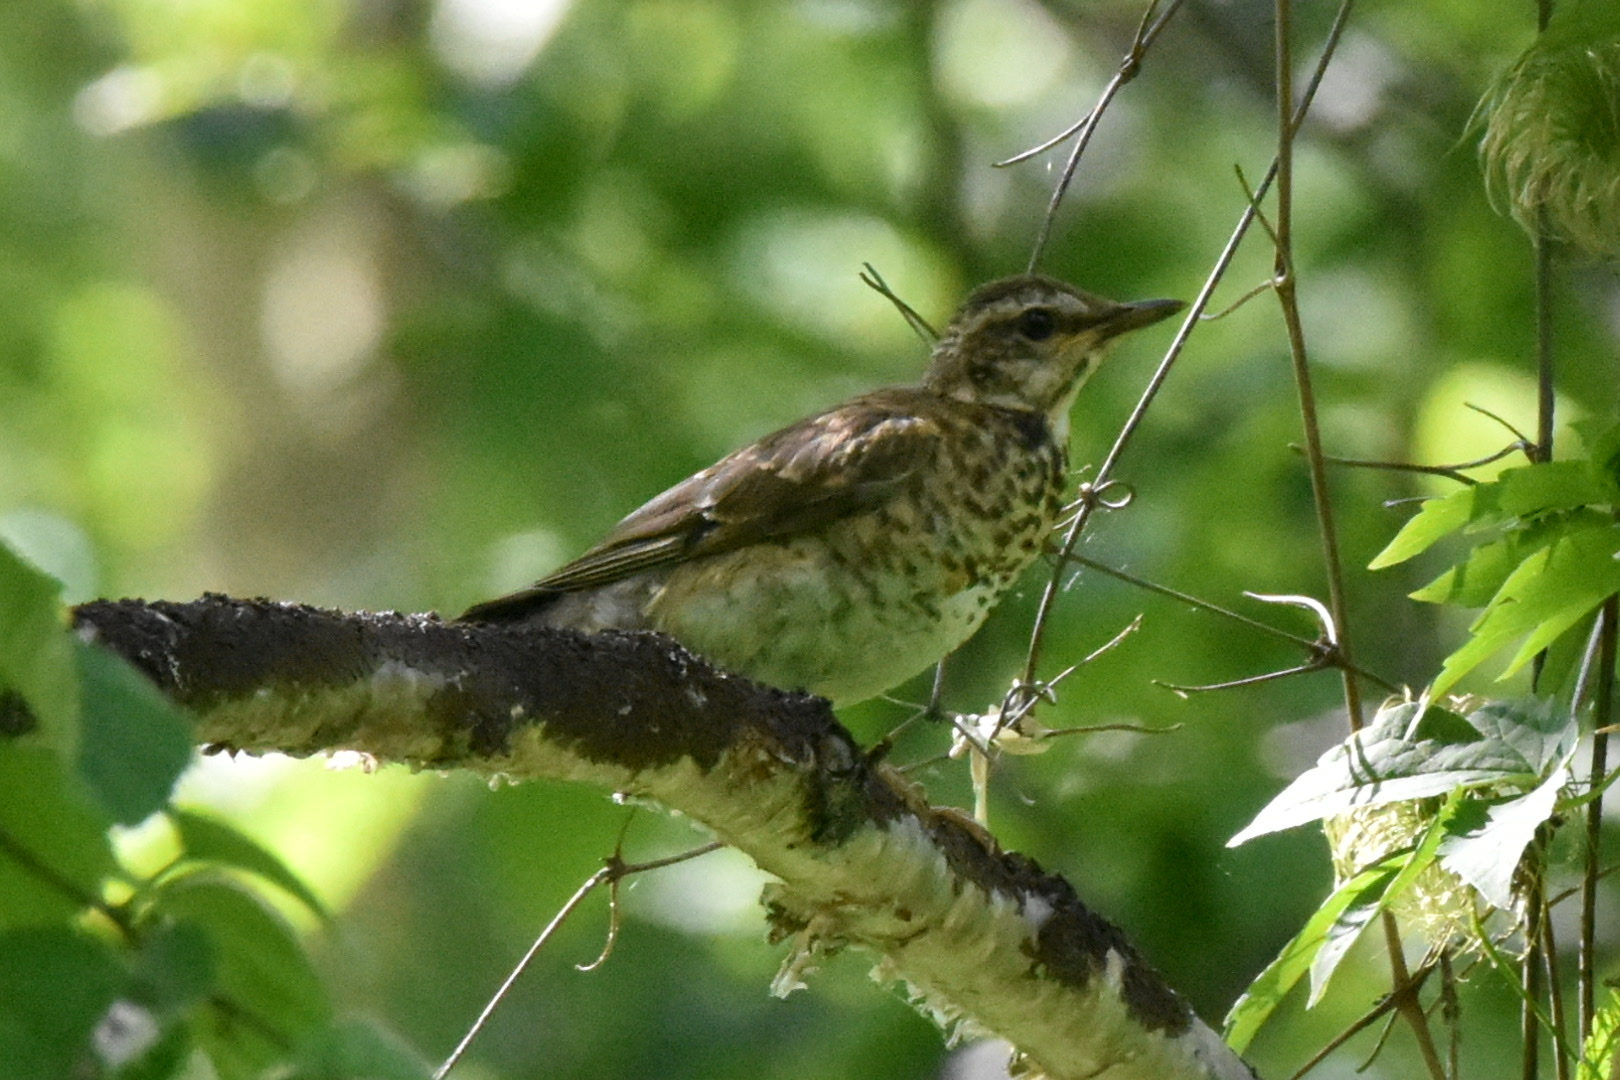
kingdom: Animalia
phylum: Chordata
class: Aves
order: Passeriformes
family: Turdidae
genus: Turdus
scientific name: Turdus obscurus
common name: Eyebrowed thrush
